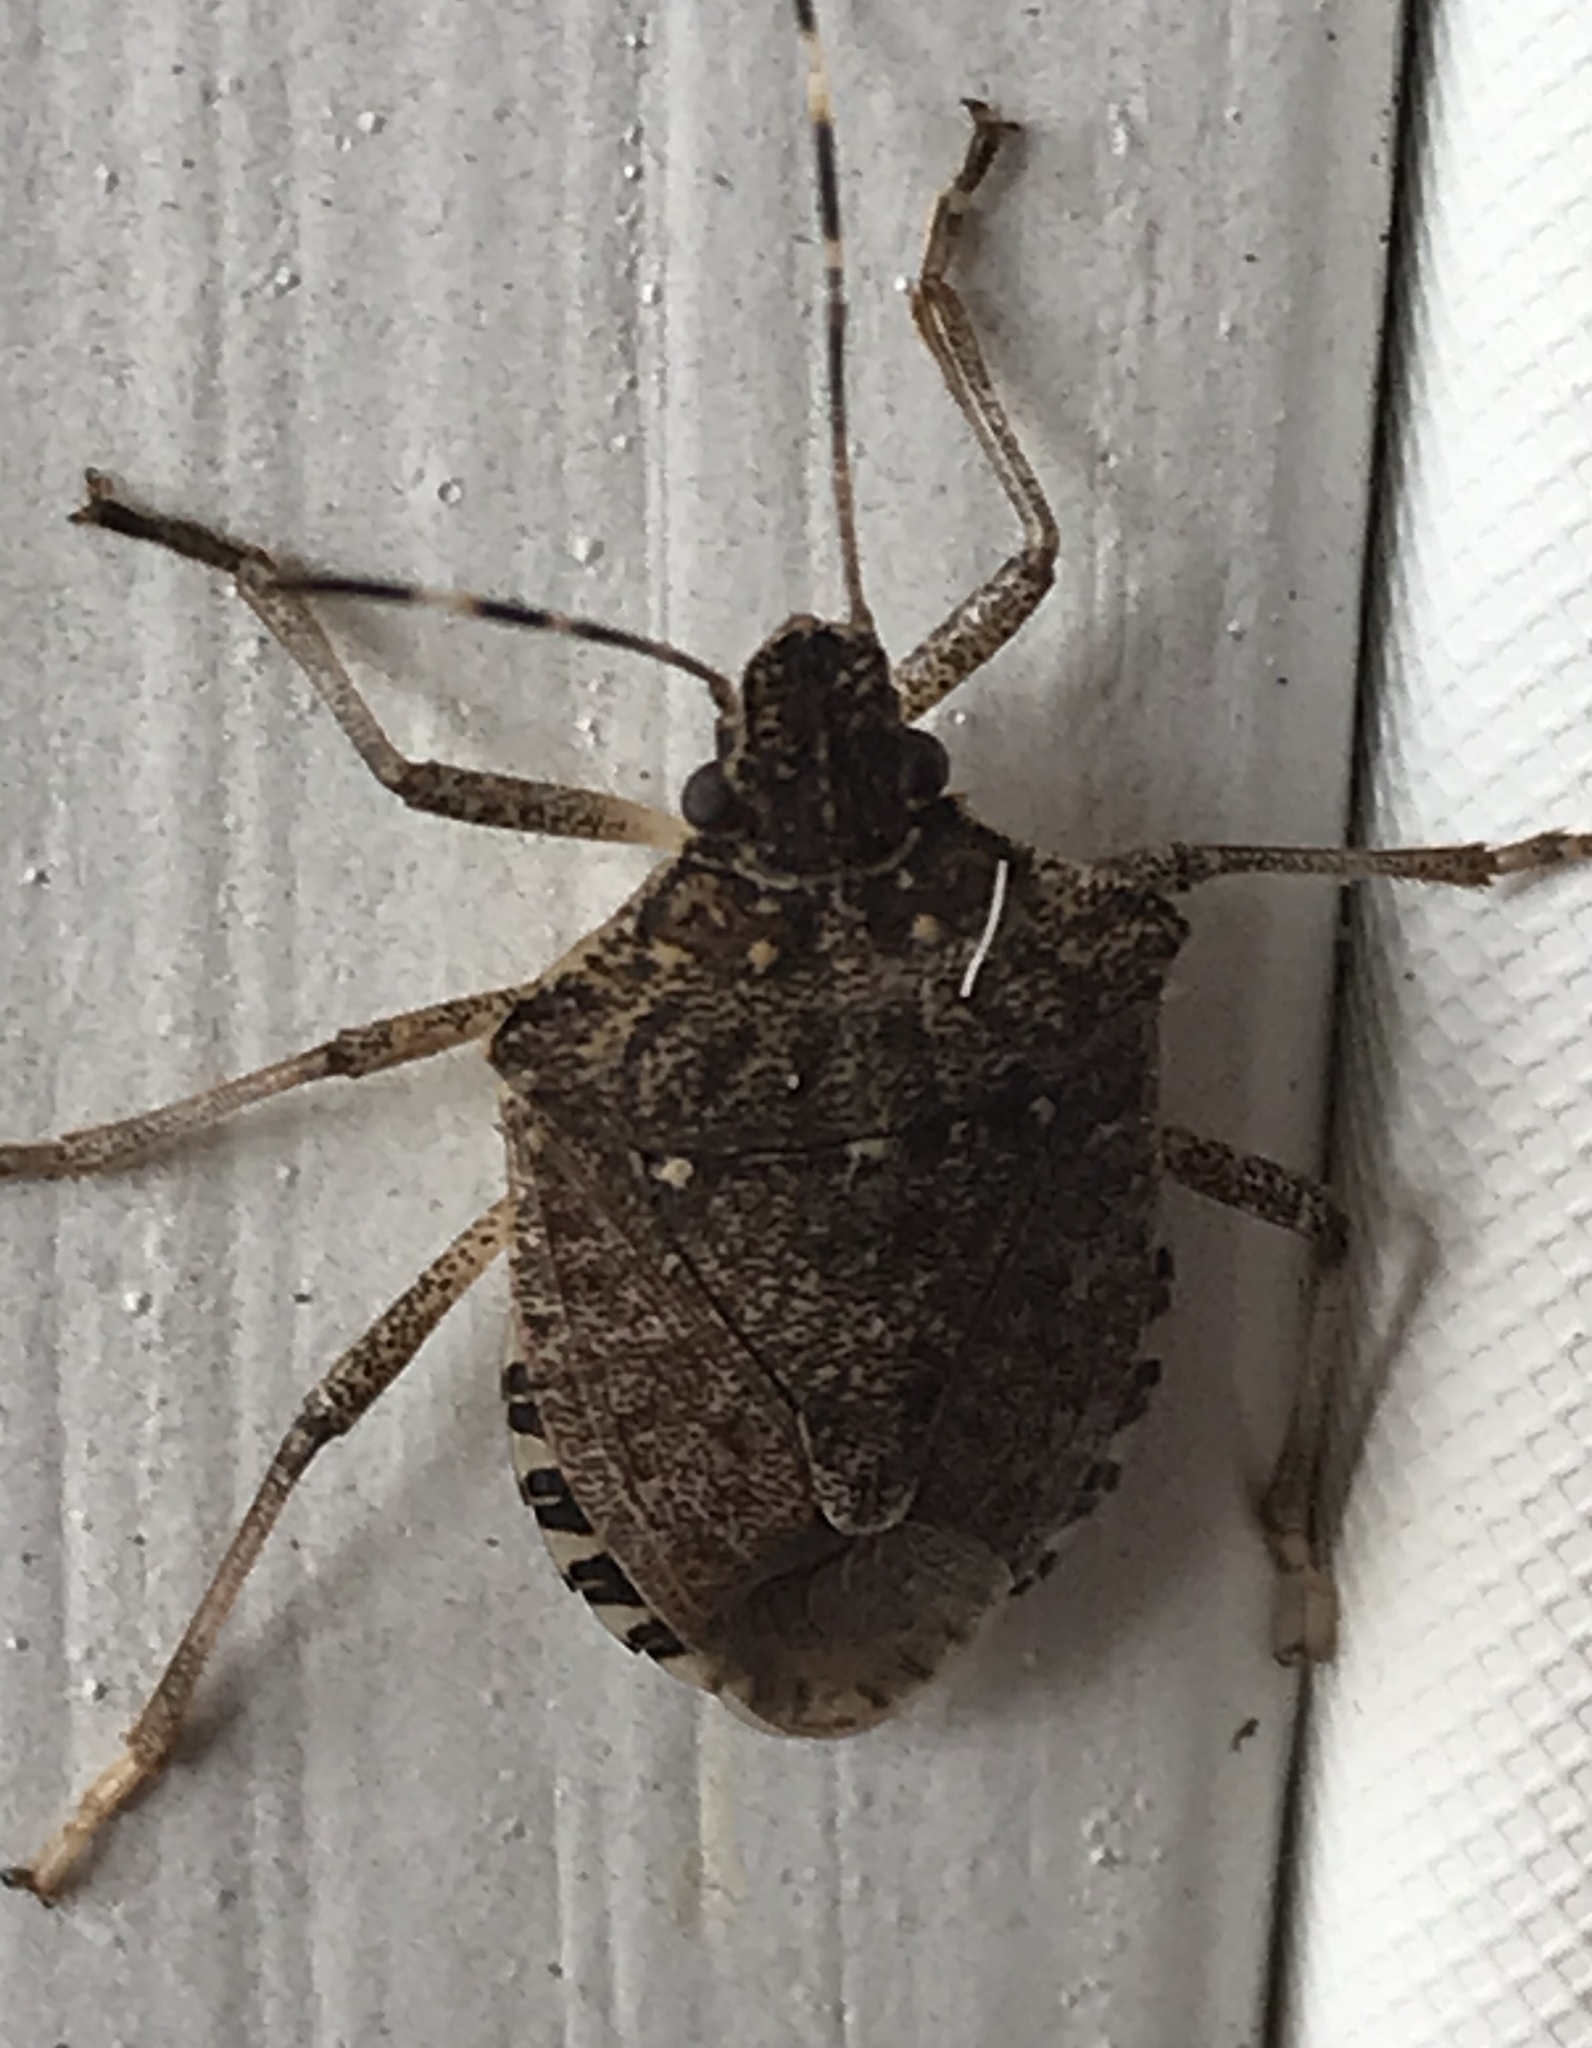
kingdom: Animalia
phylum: Arthropoda
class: Insecta
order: Hemiptera
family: Pentatomidae
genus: Halyomorpha
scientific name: Halyomorpha halys
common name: Brown marmorated stink bug
